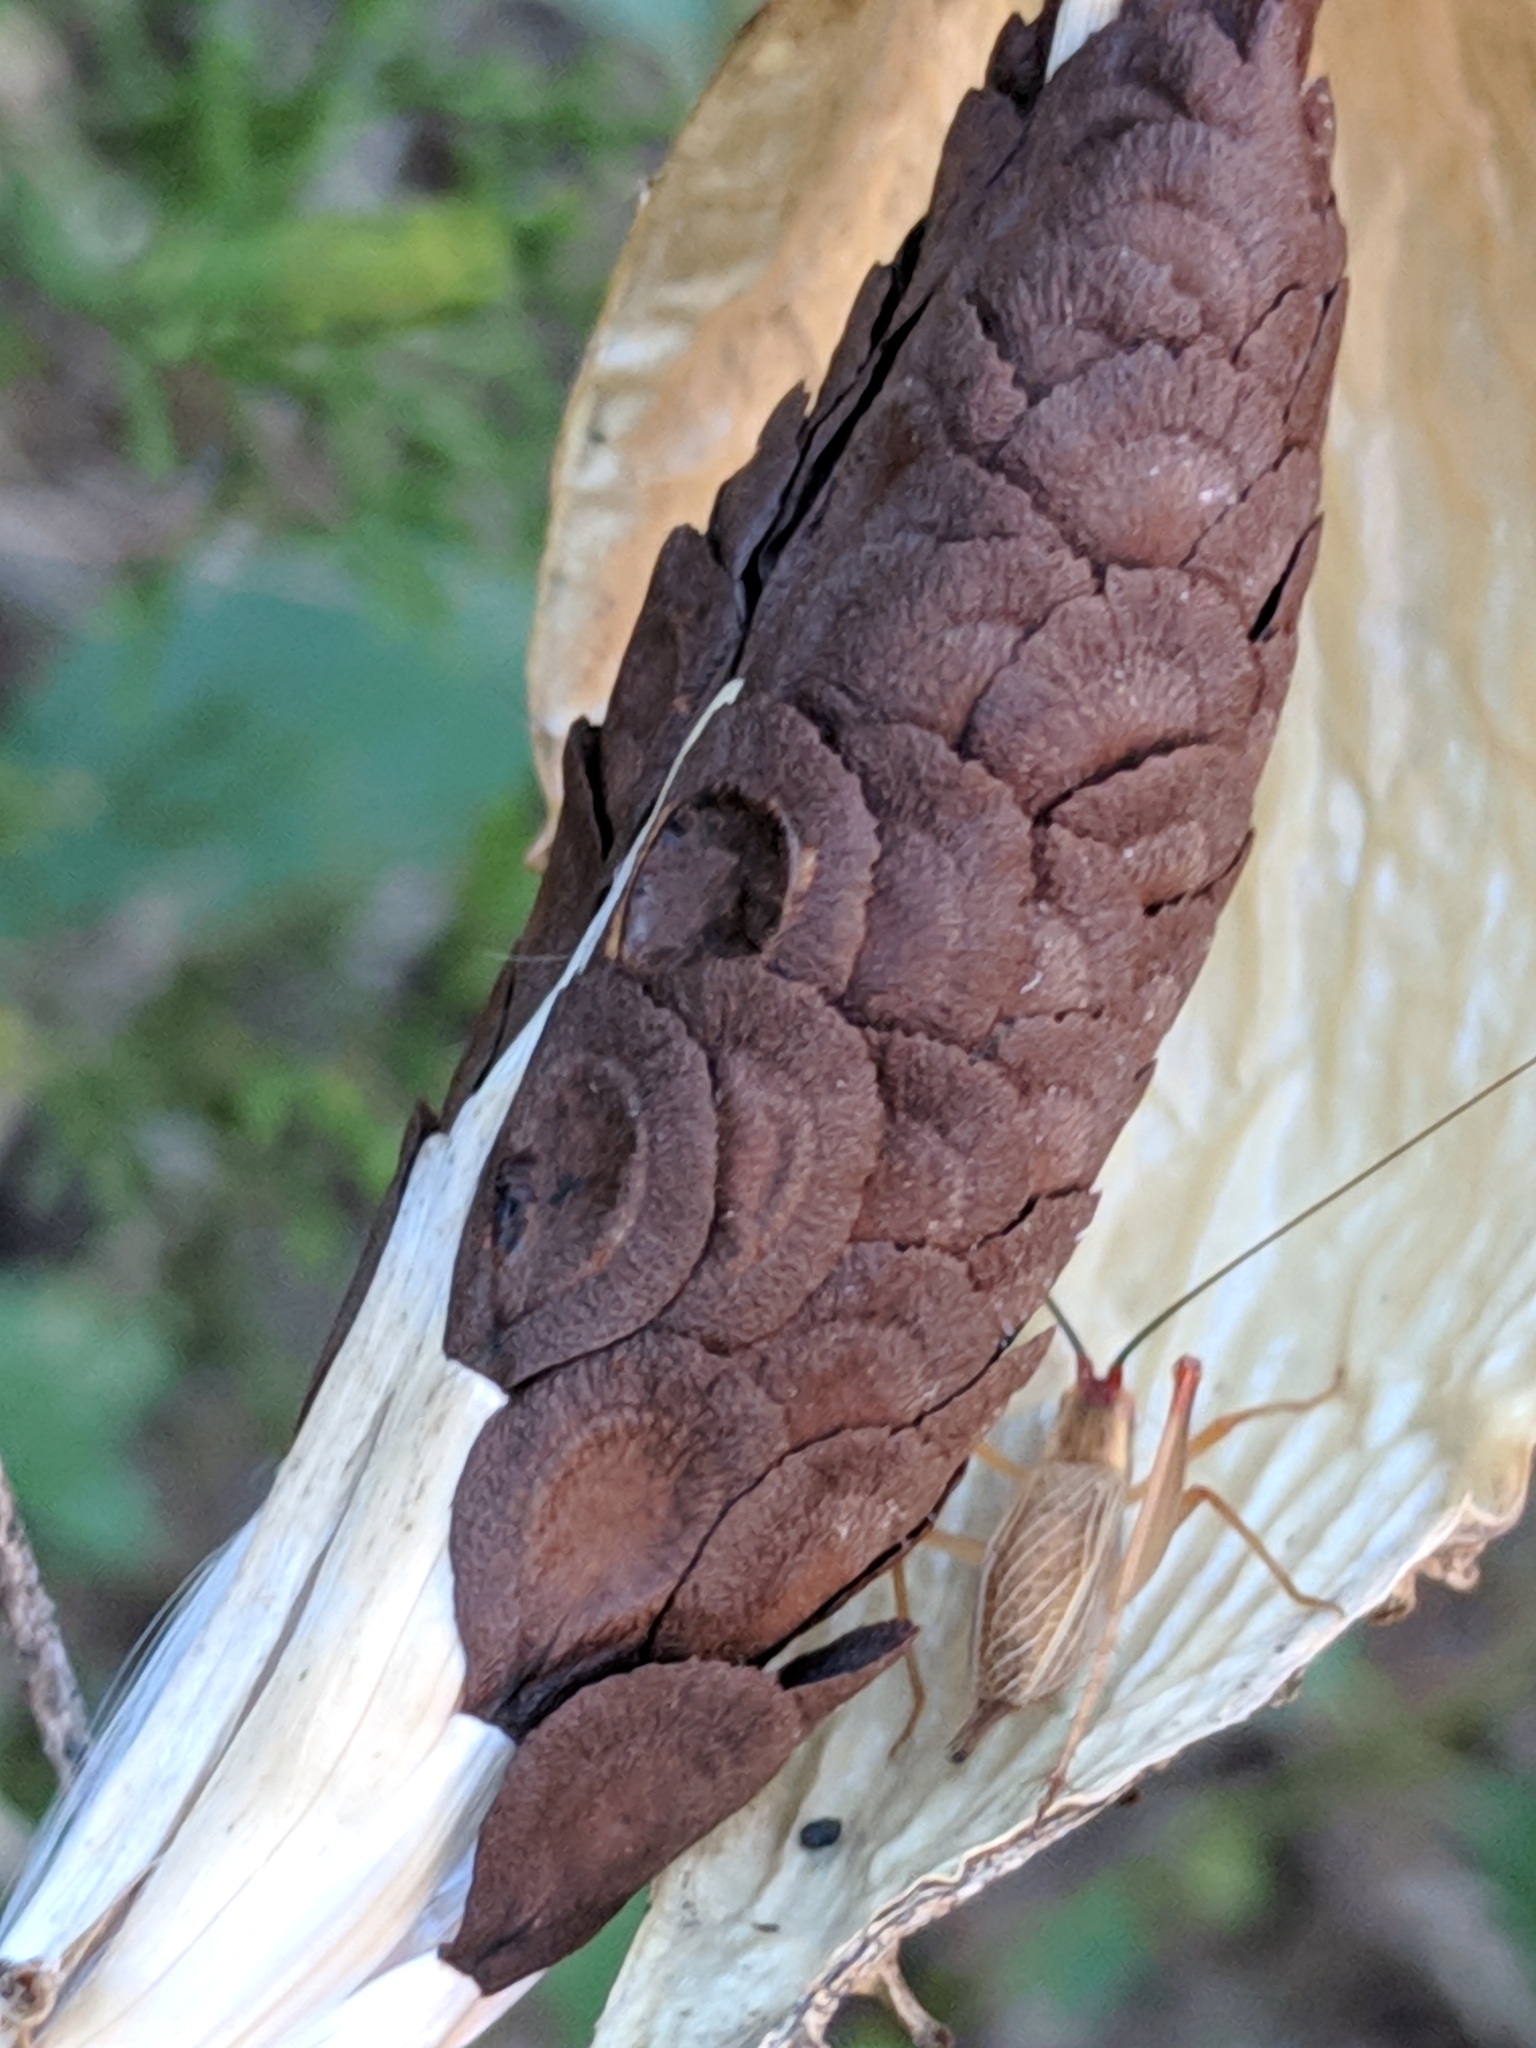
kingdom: Animalia
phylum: Arthropoda
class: Insecta
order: Orthoptera
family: Gryllidae
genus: Oecanthus
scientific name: Oecanthus
